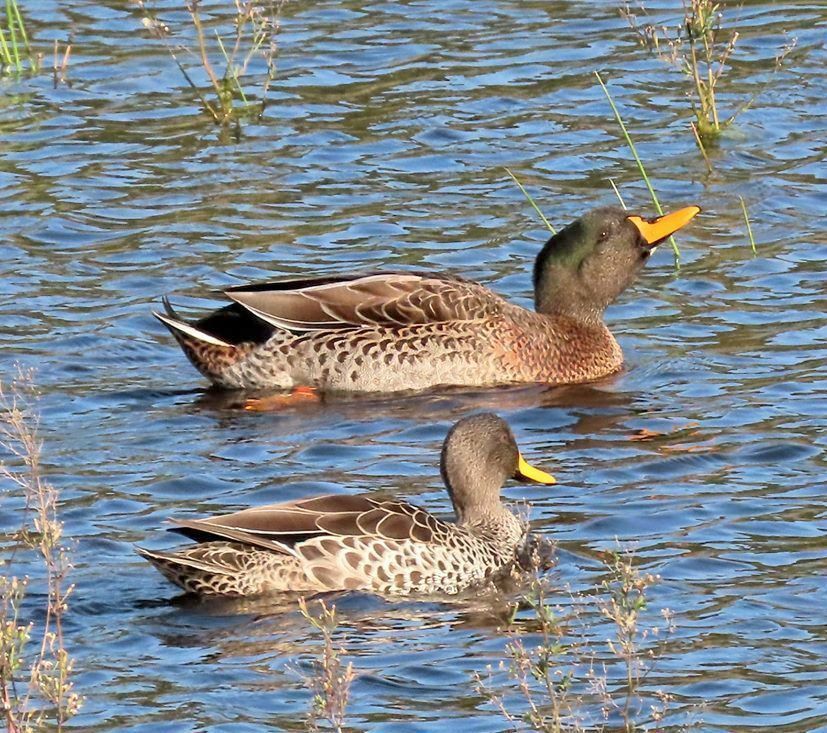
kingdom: Animalia
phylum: Chordata
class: Aves
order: Anseriformes
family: Anatidae
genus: Anas
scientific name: Anas
